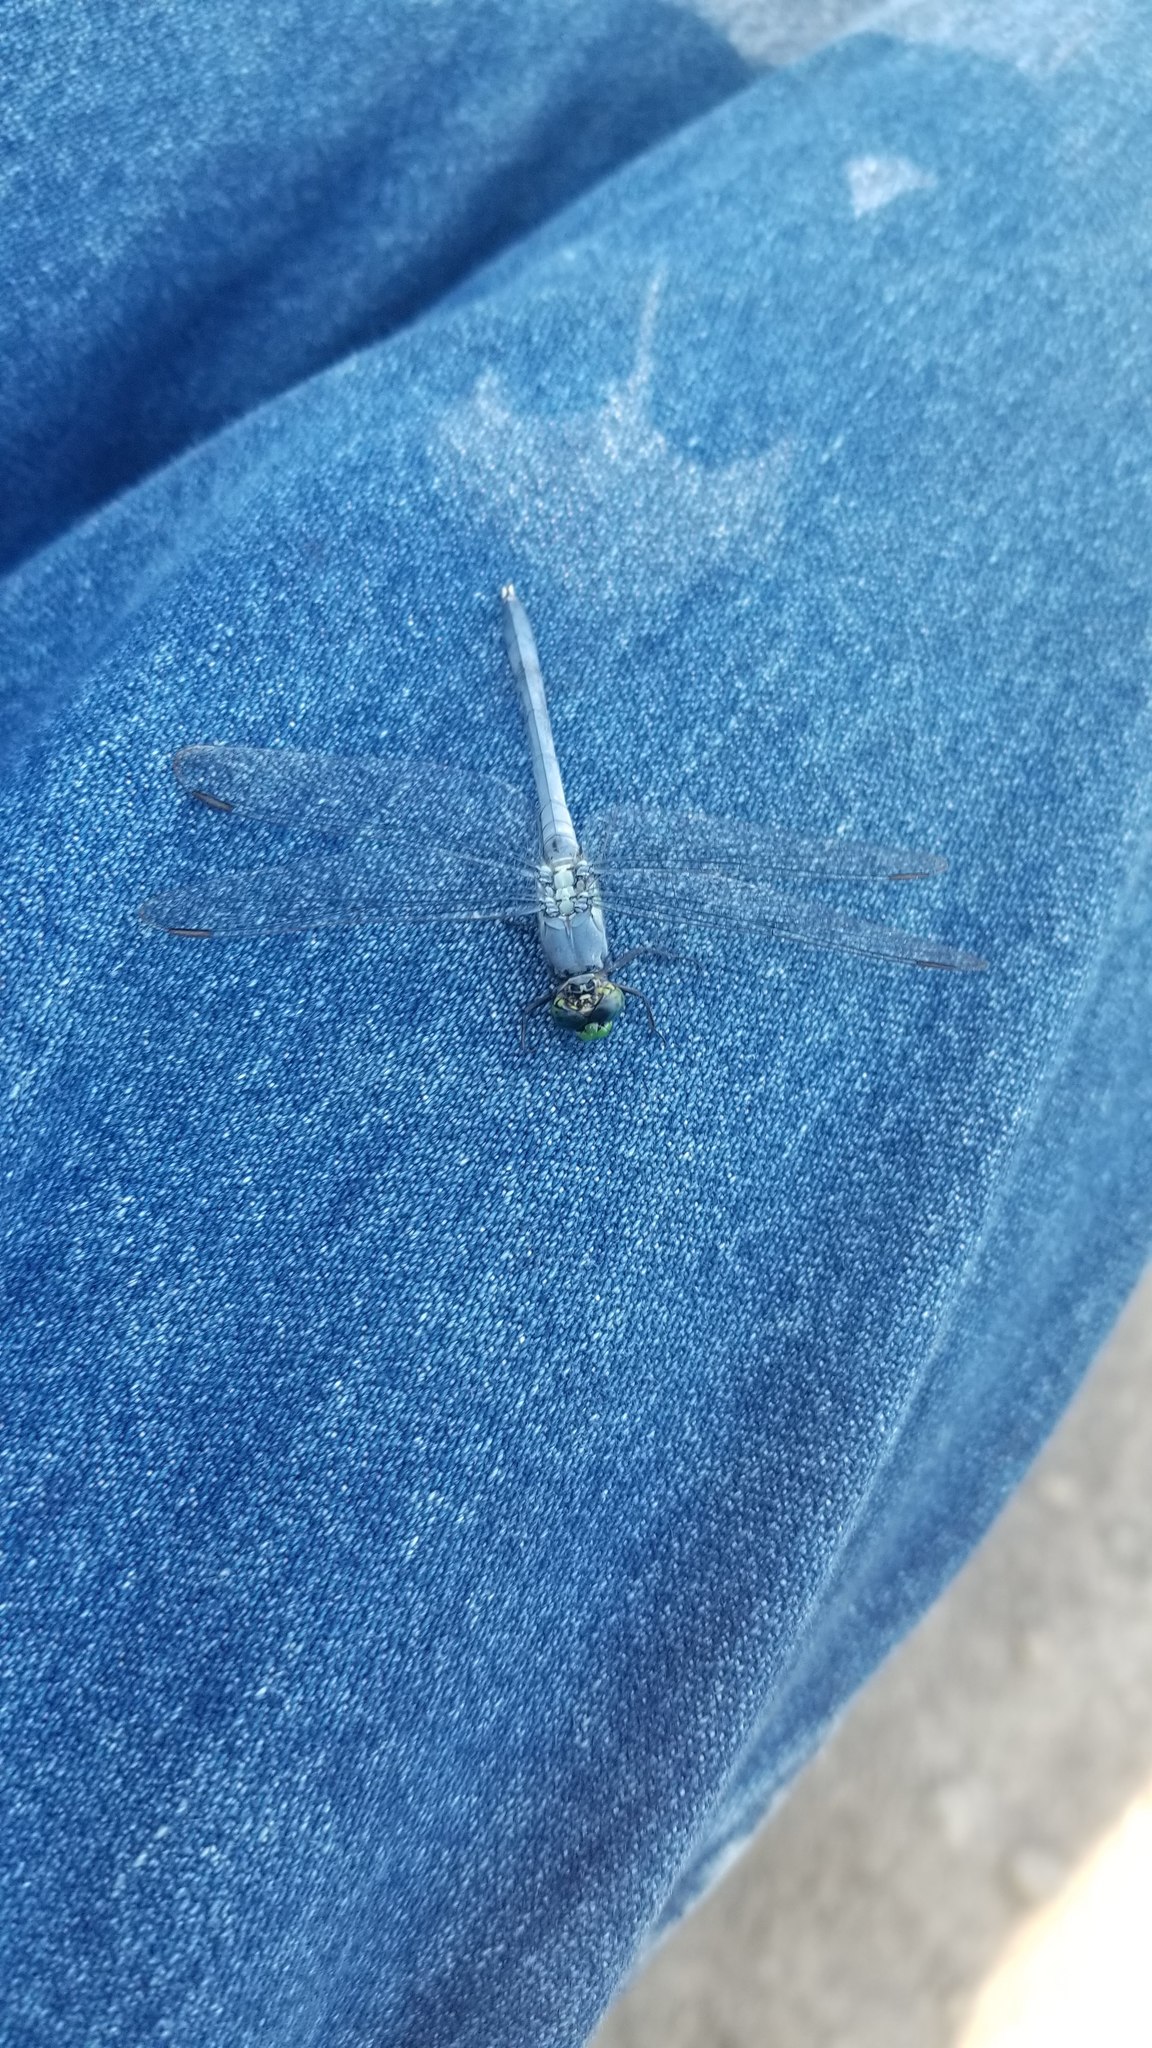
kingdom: Animalia
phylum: Arthropoda
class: Insecta
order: Odonata
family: Libellulidae
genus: Erythemis
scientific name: Erythemis simplicicollis
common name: Eastern pondhawk
